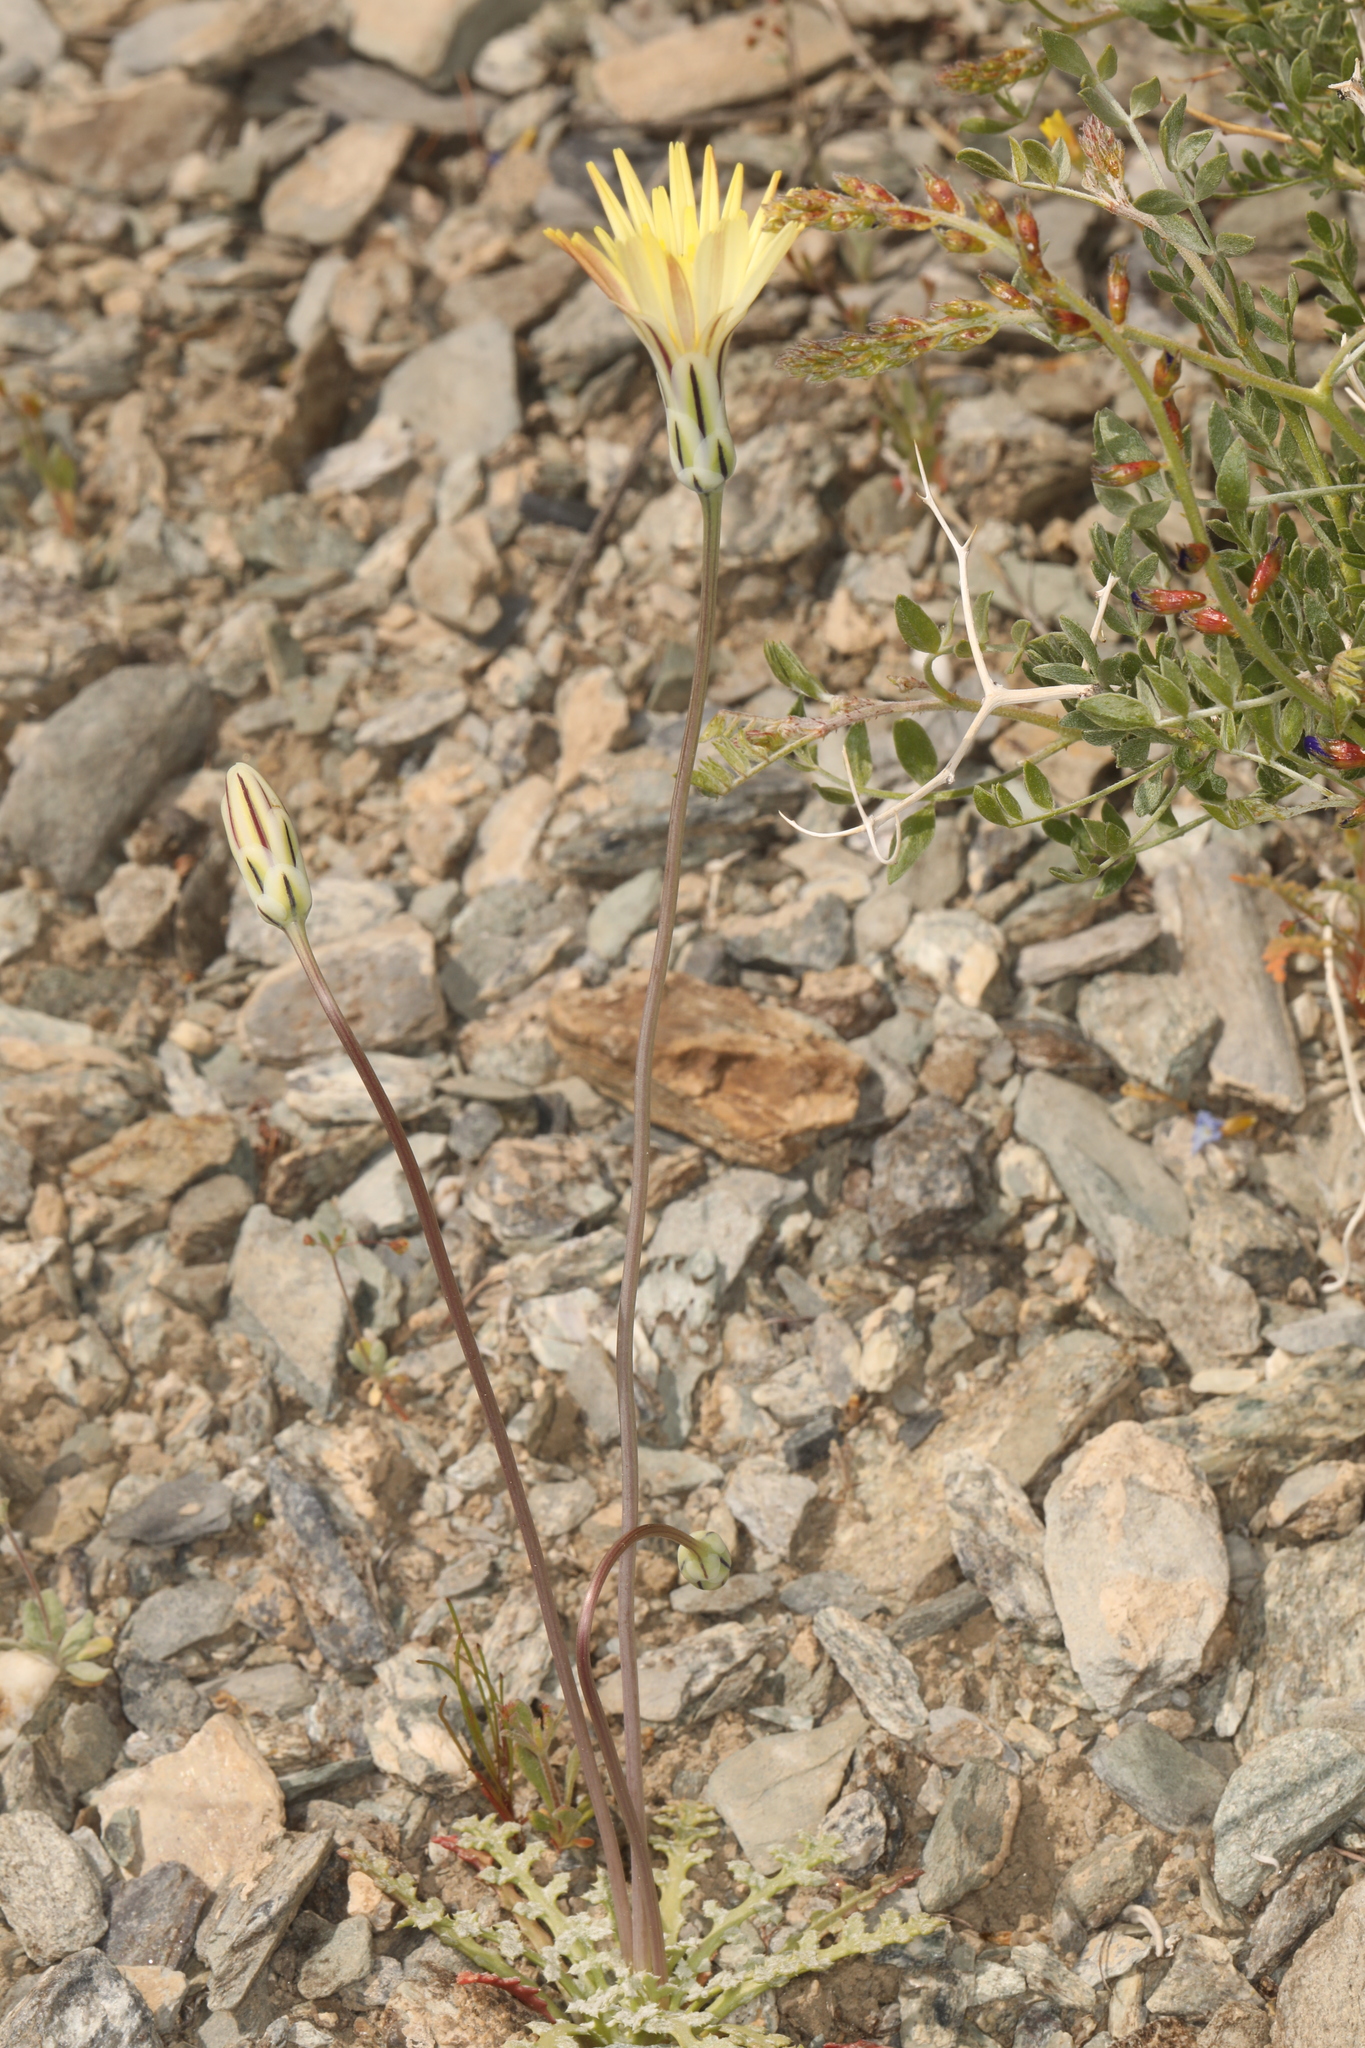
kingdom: Plantae
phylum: Tracheophyta
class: Magnoliopsida
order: Asterales
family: Asteraceae
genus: Anisocoma
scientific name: Anisocoma acaulis
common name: Scalebud
